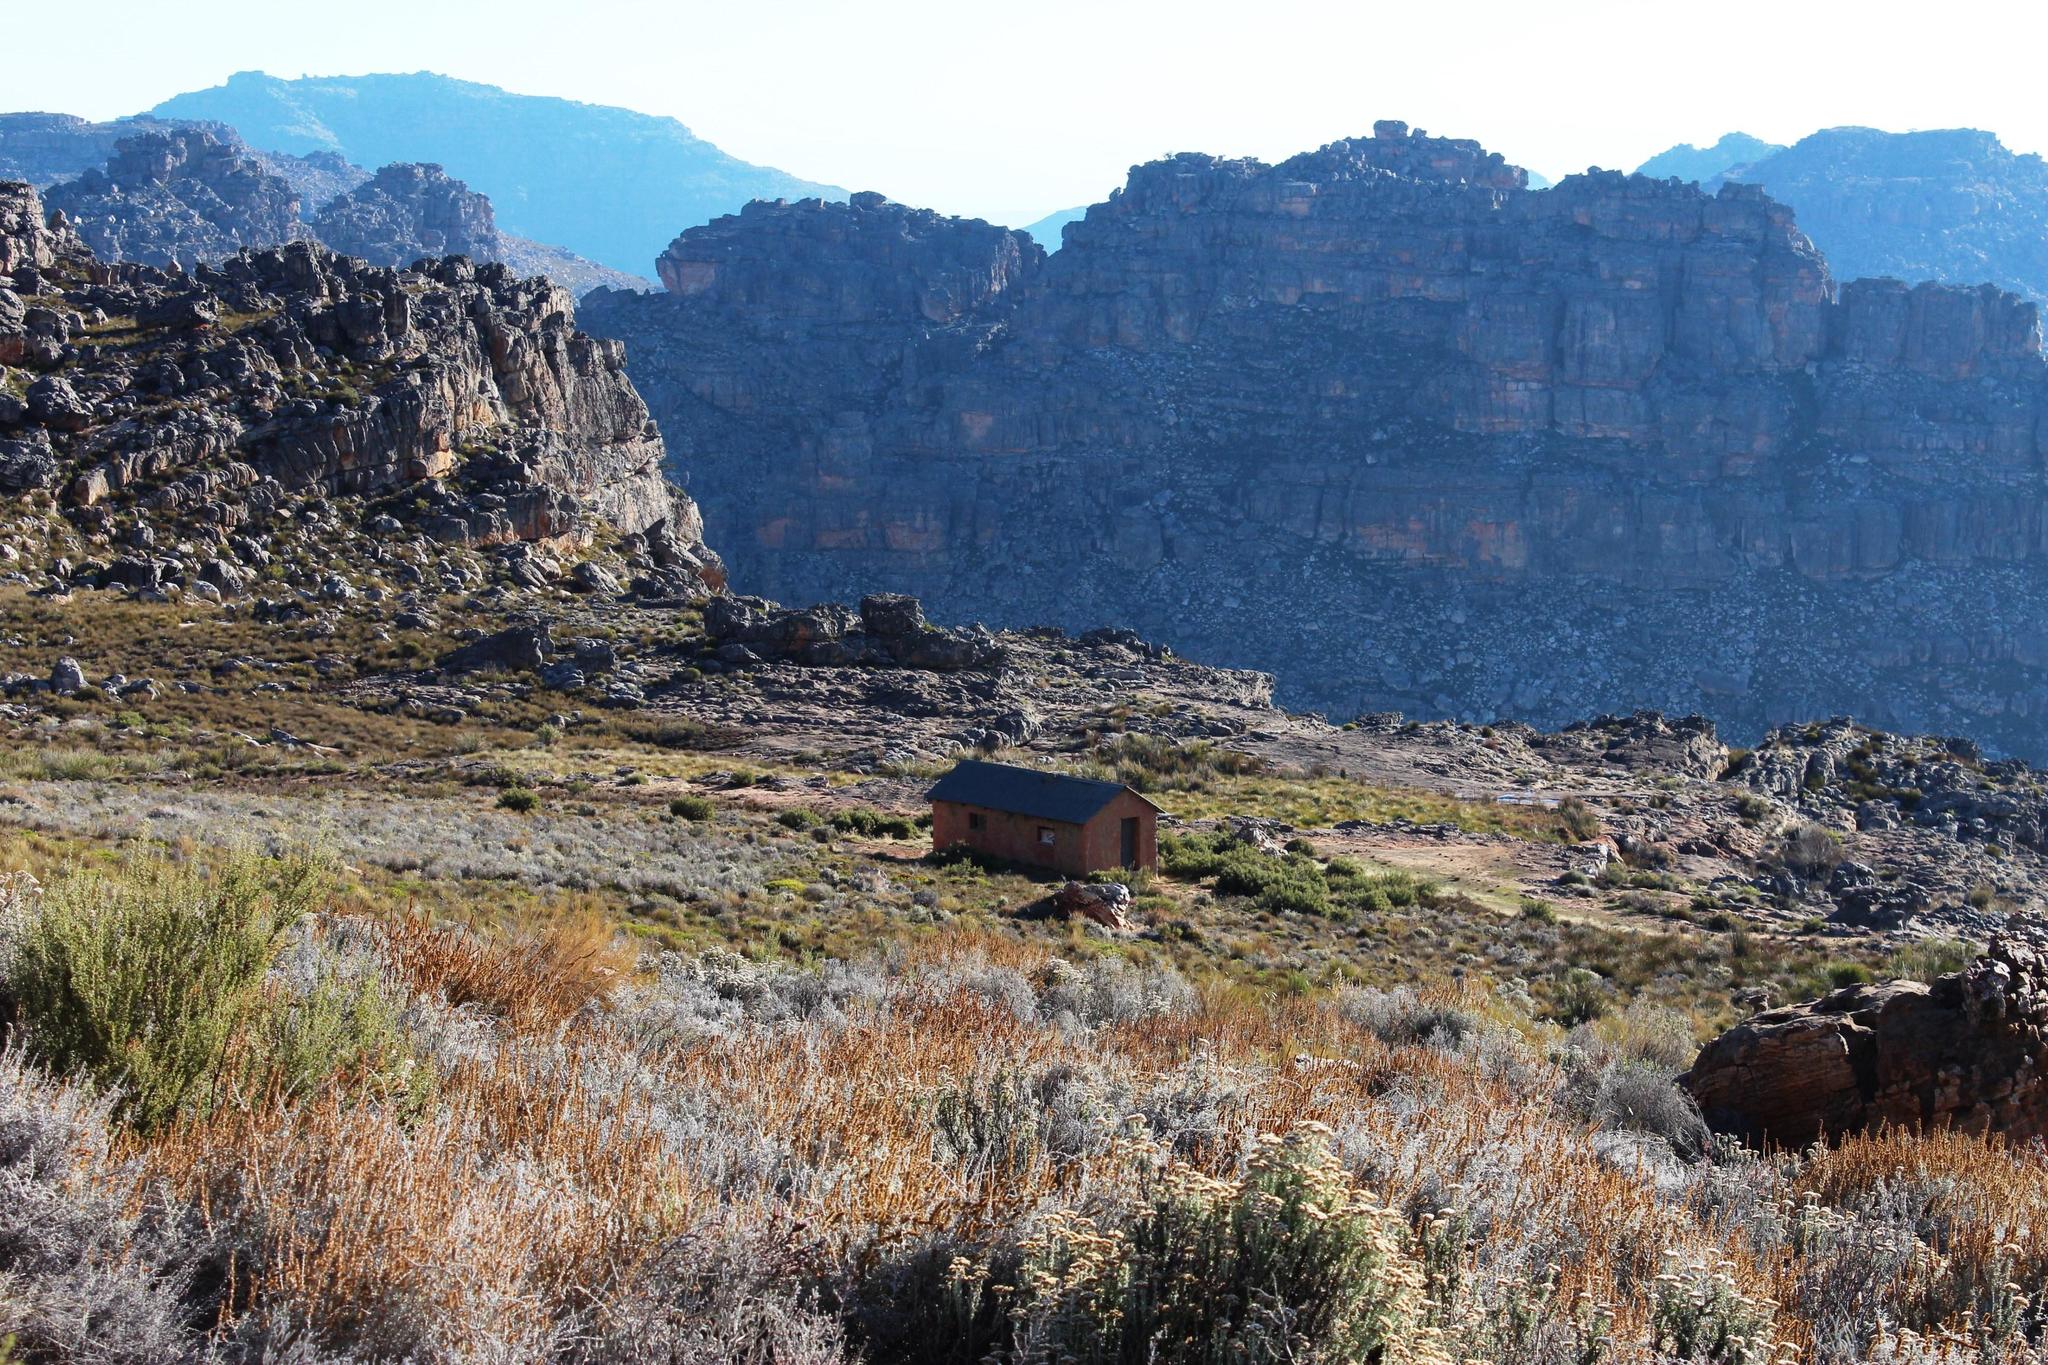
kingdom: Plantae
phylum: Tracheophyta
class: Magnoliopsida
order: Asterales
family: Asteraceae
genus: Seriphium
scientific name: Seriphium plumosum
